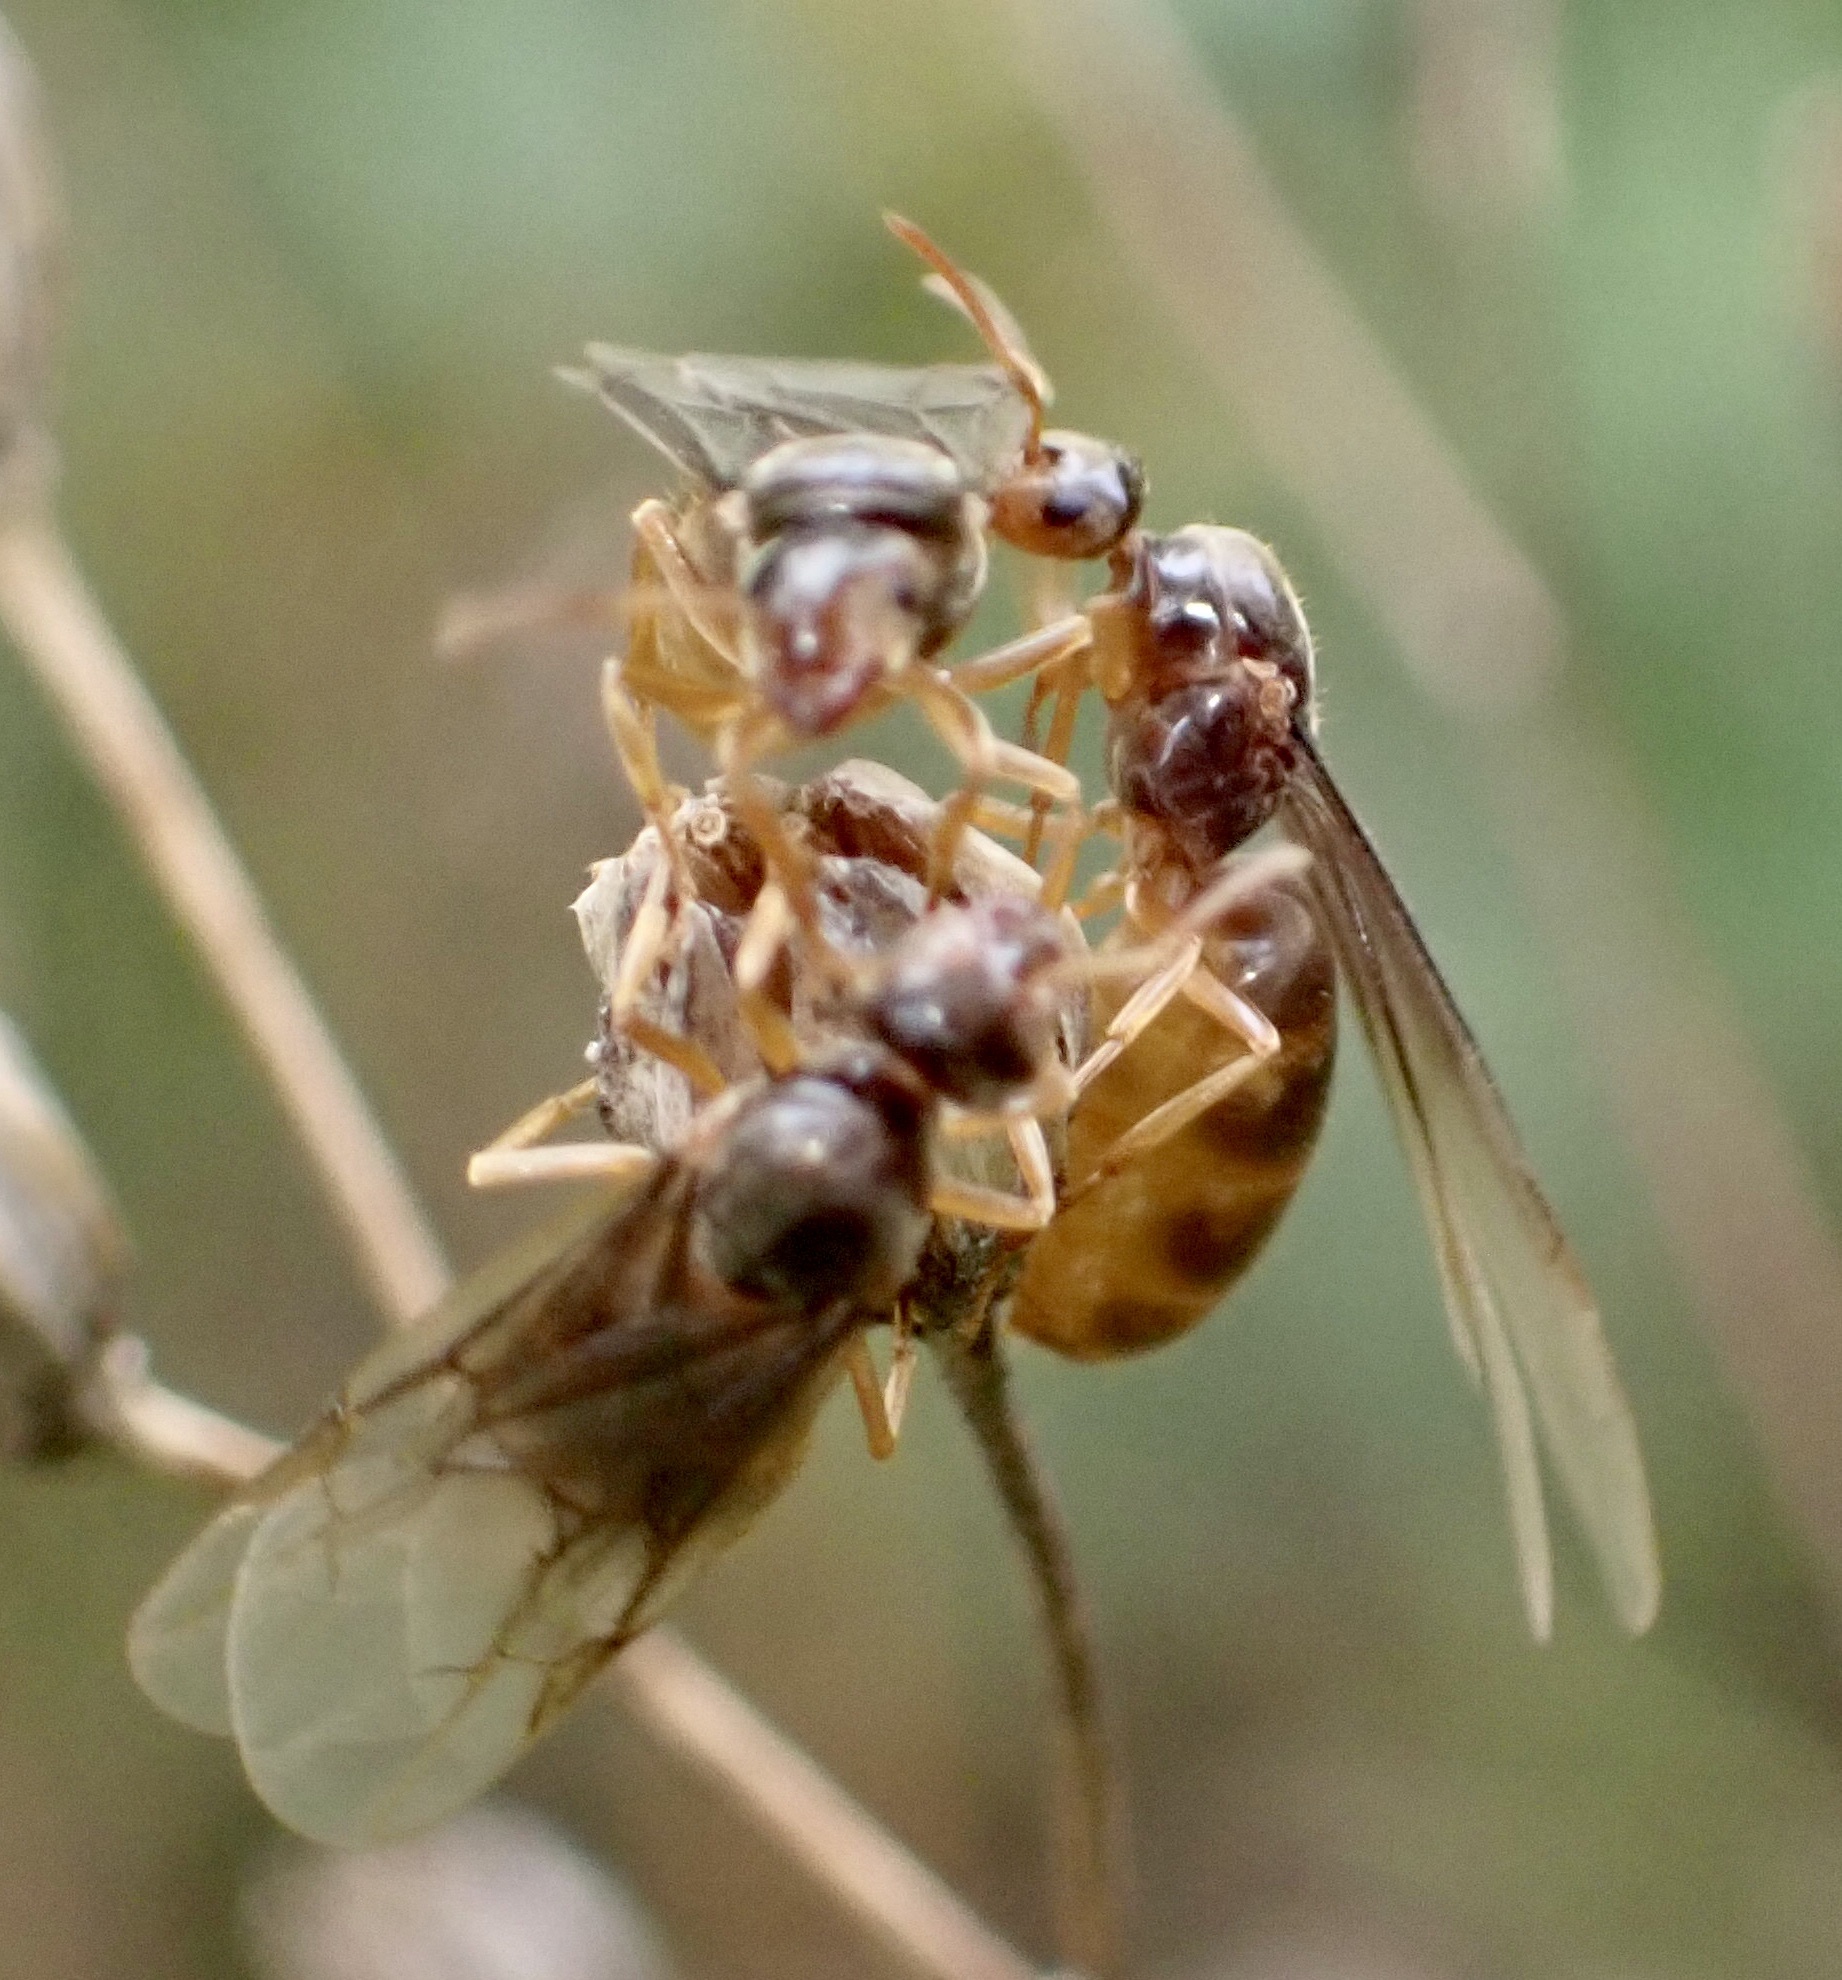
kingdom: Animalia
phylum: Arthropoda
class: Insecta
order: Hymenoptera
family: Formicidae
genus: Lasius
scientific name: Lasius flavus
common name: Blond field ant
